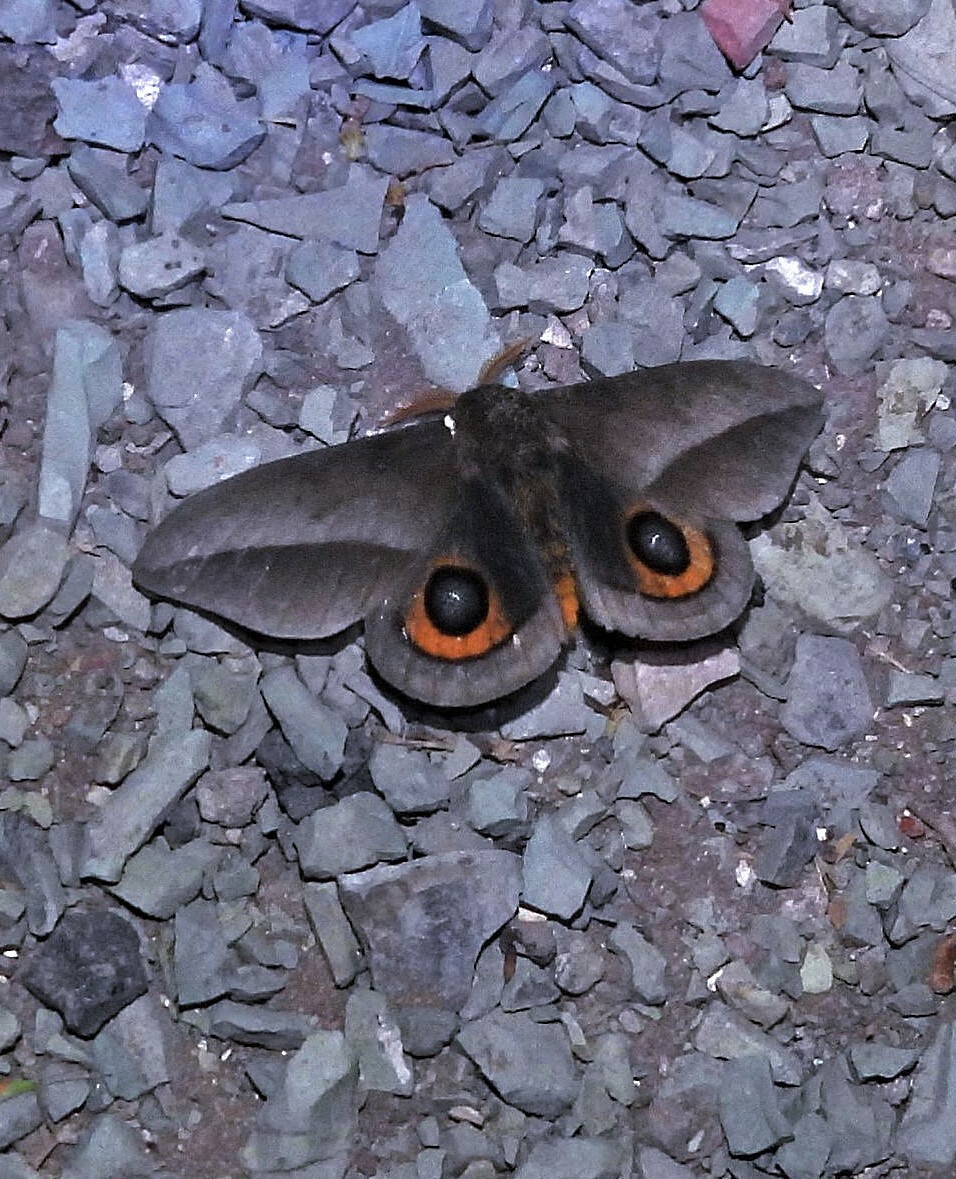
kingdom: Animalia
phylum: Arthropoda
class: Insecta
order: Lepidoptera
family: Saturniidae
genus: Automeris
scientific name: Automeris umbrosa
